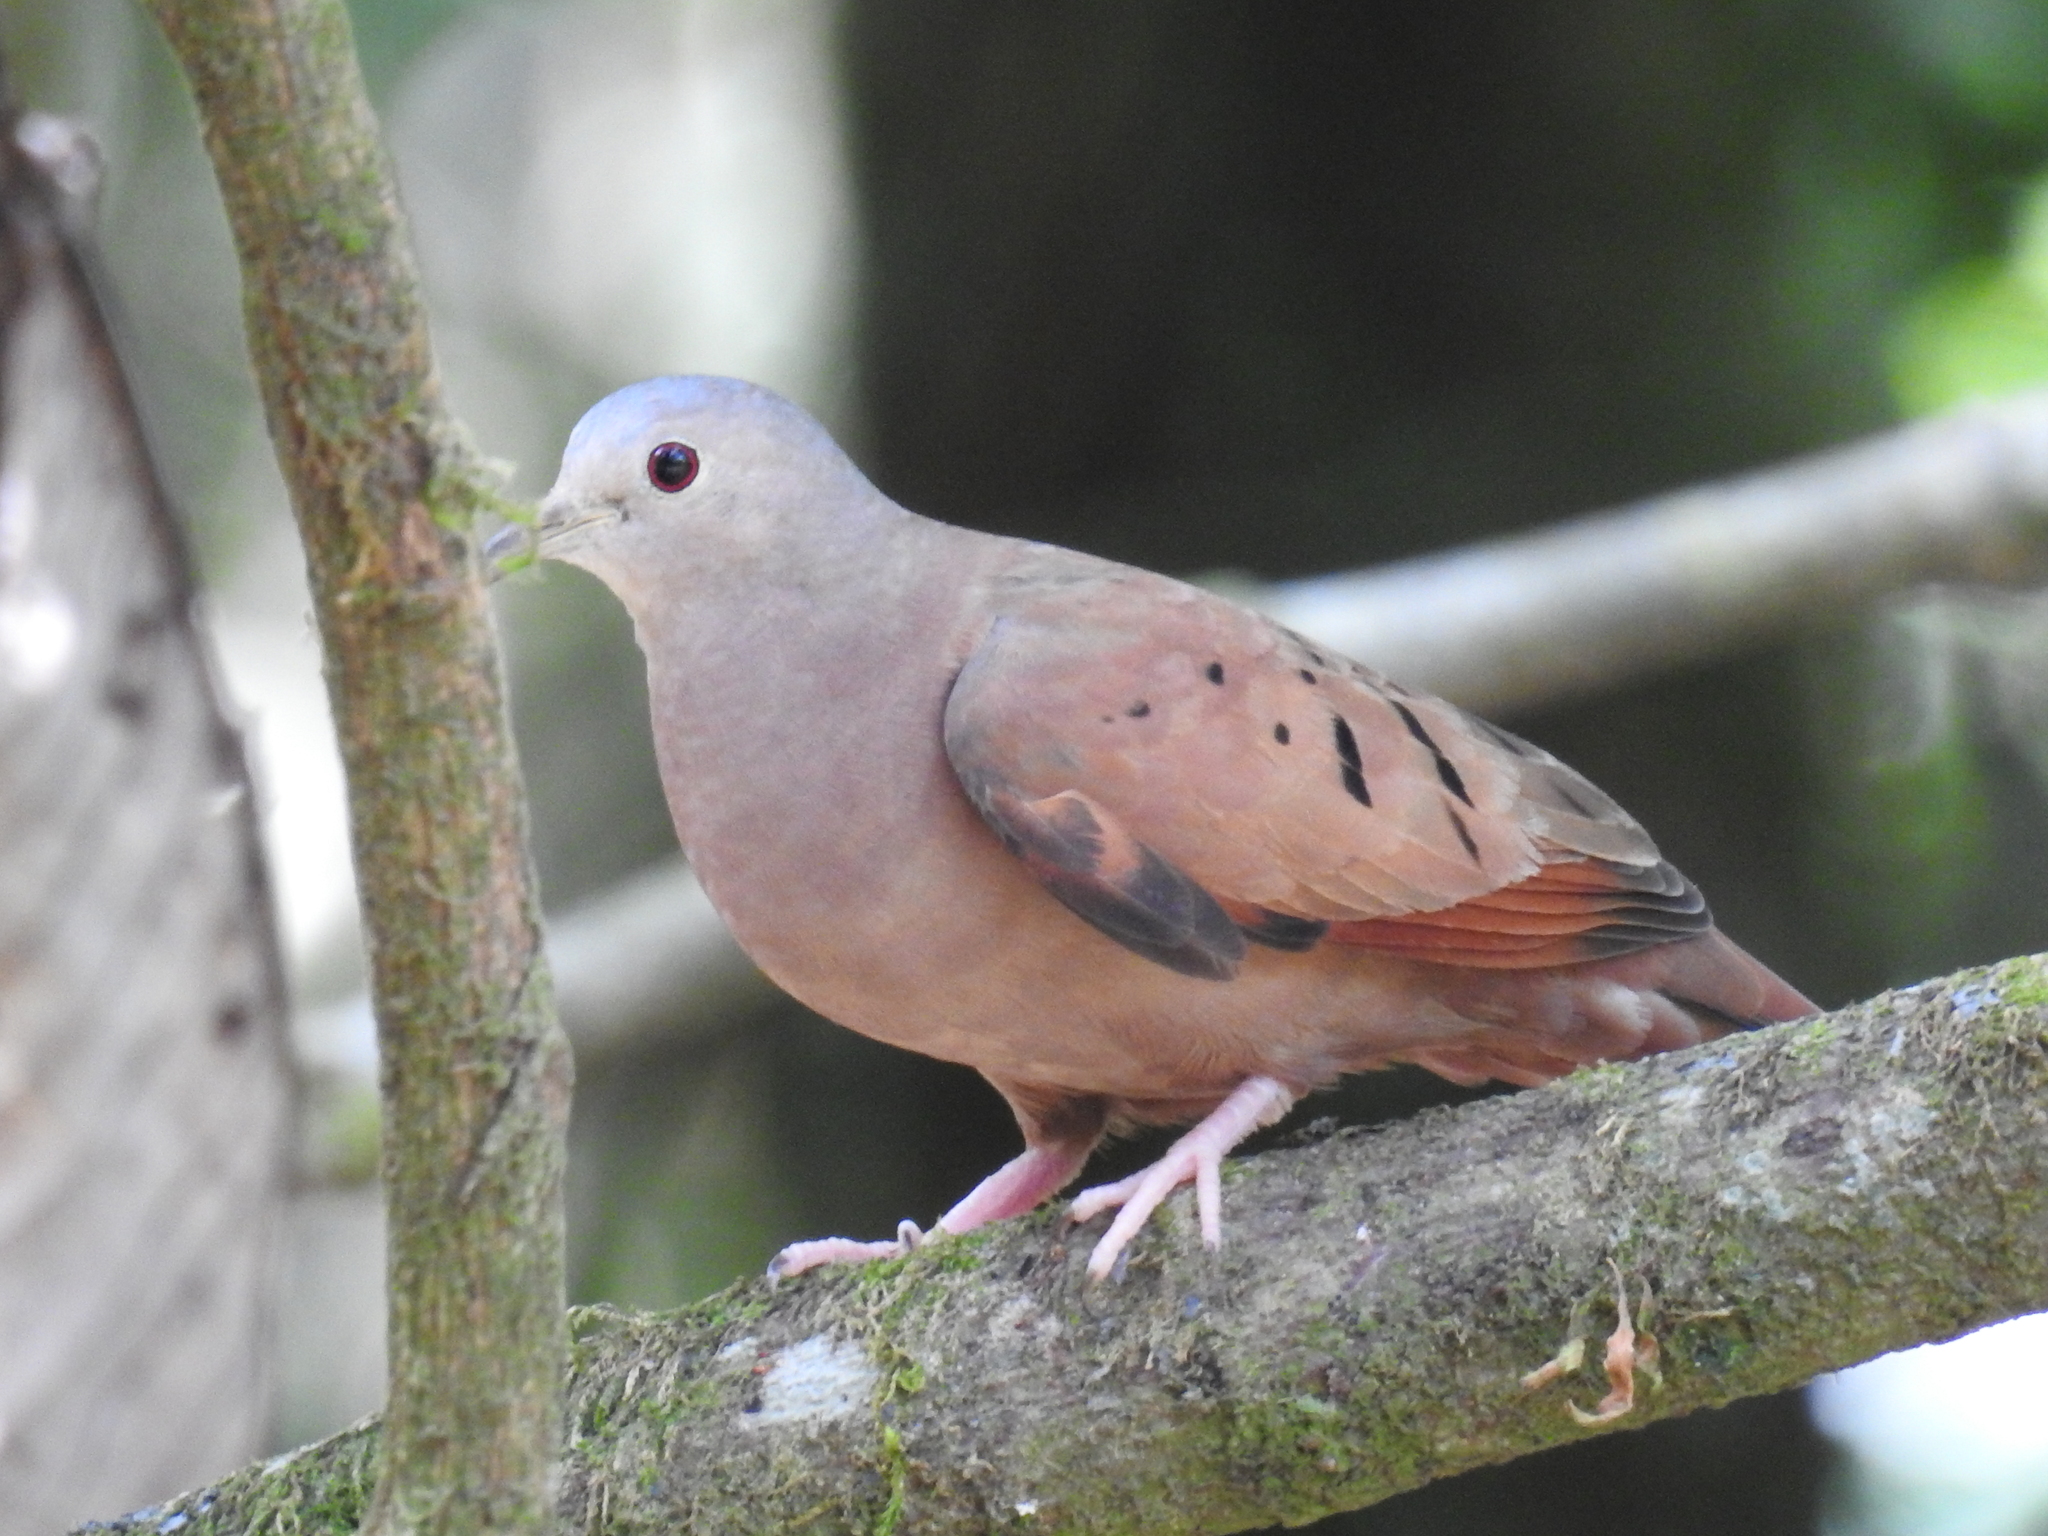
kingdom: Animalia
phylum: Chordata
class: Aves
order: Columbiformes
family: Columbidae
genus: Columbina
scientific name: Columbina talpacoti
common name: Ruddy ground dove
